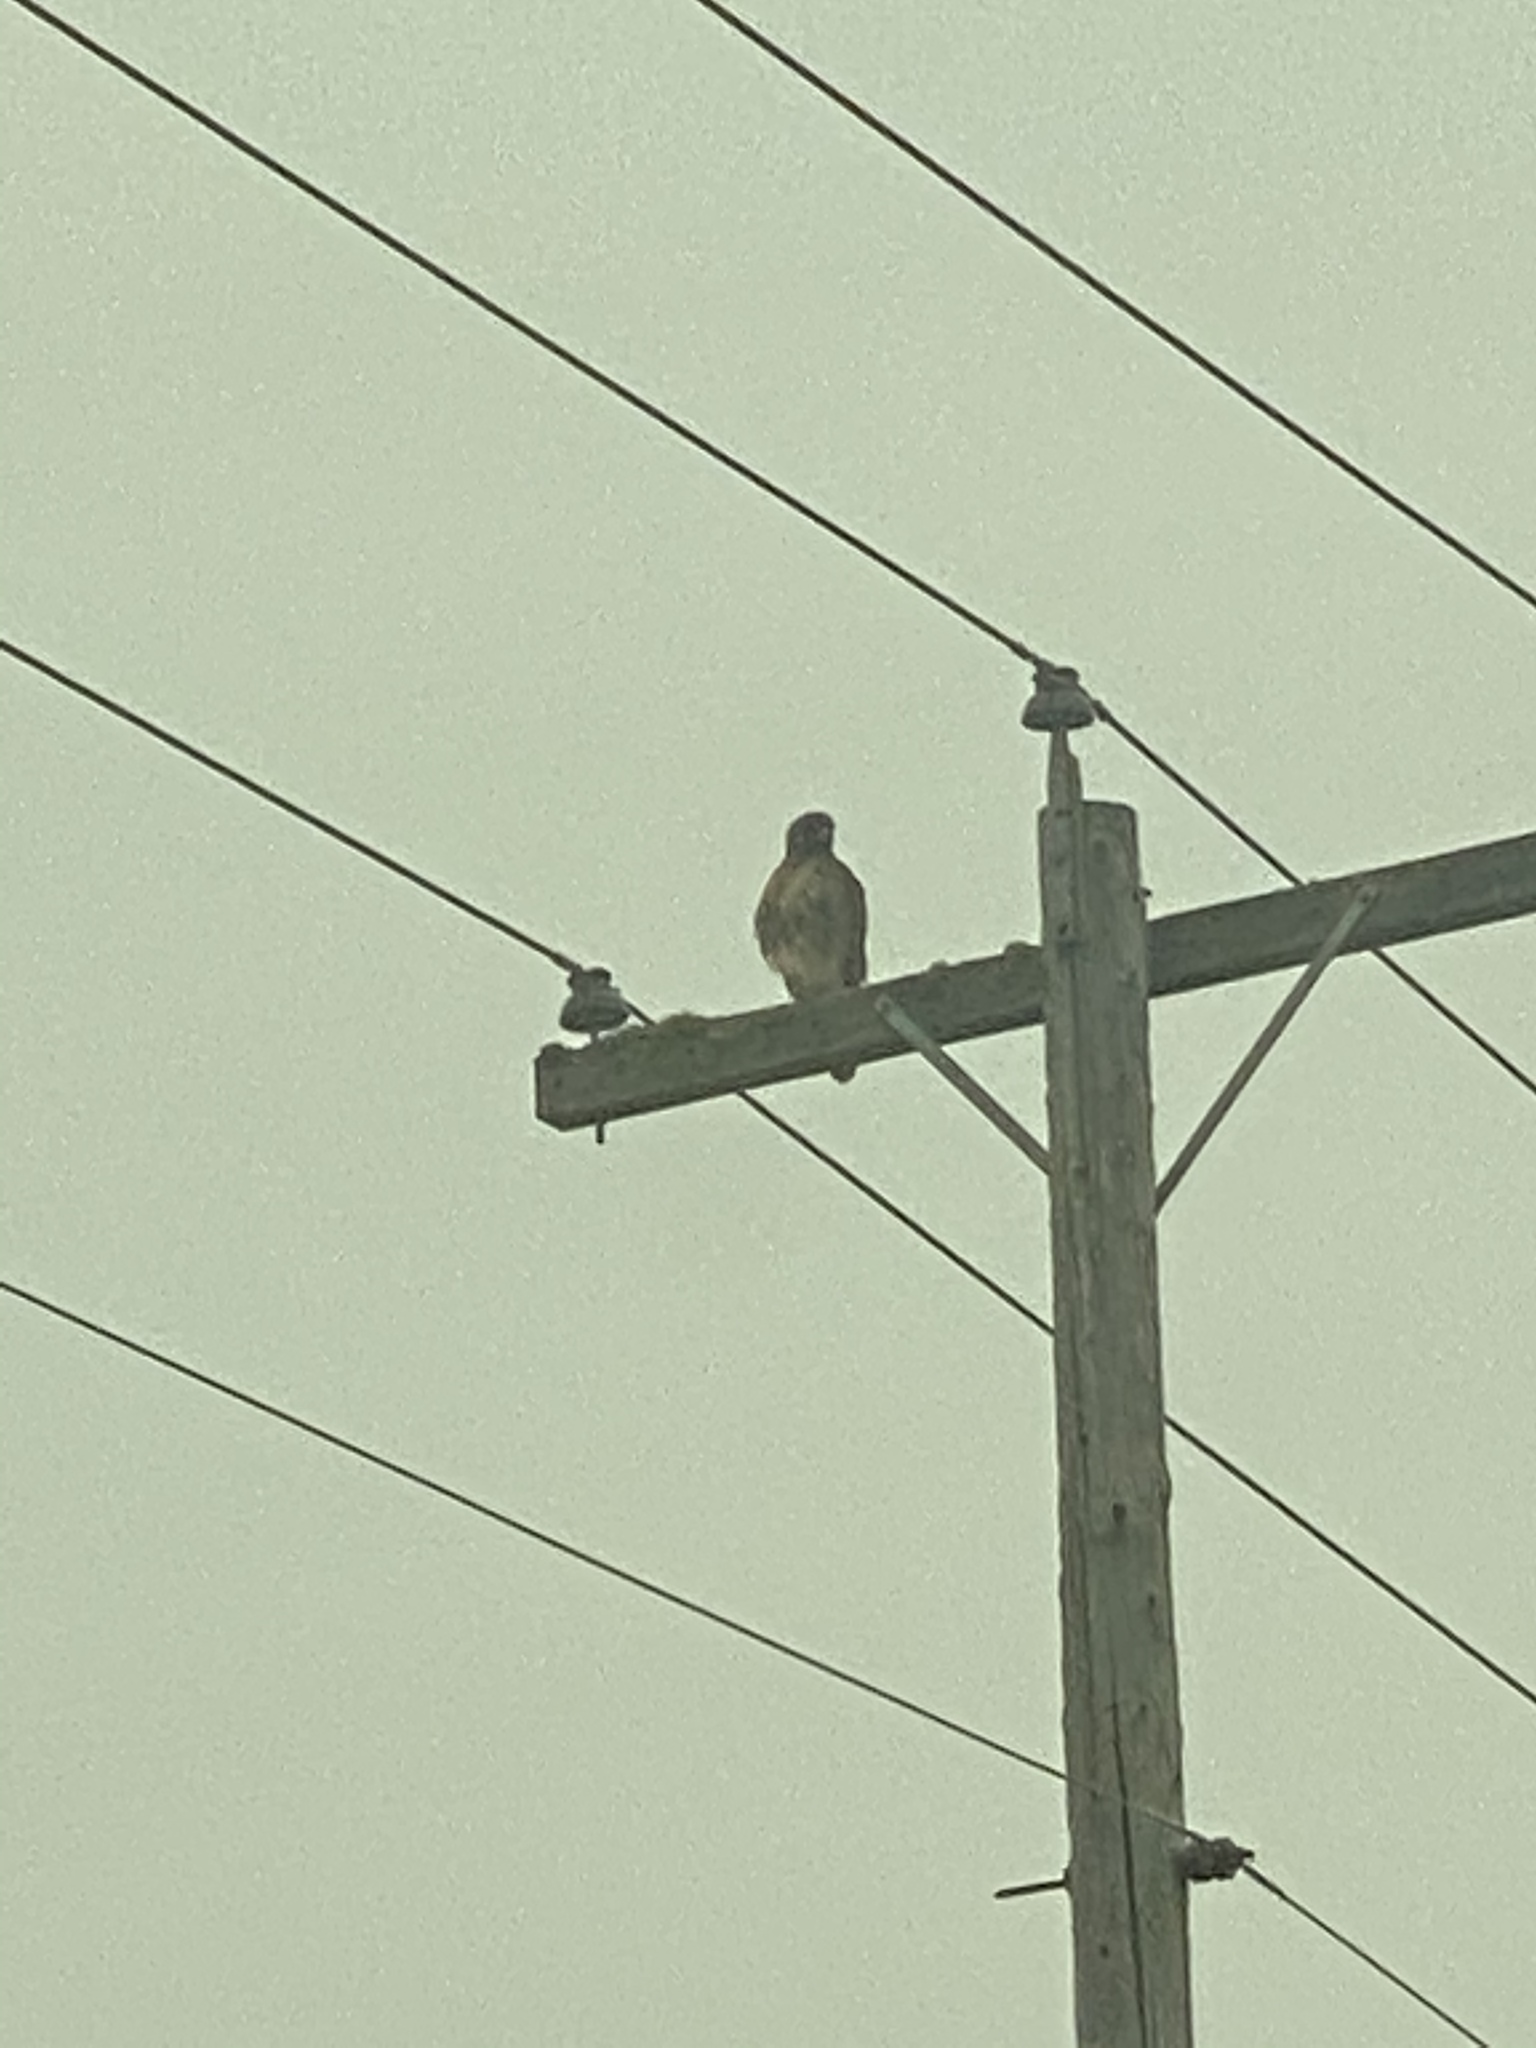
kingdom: Animalia
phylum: Chordata
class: Aves
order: Accipitriformes
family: Accipitridae
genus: Buteo
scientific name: Buteo jamaicensis
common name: Red-tailed hawk
